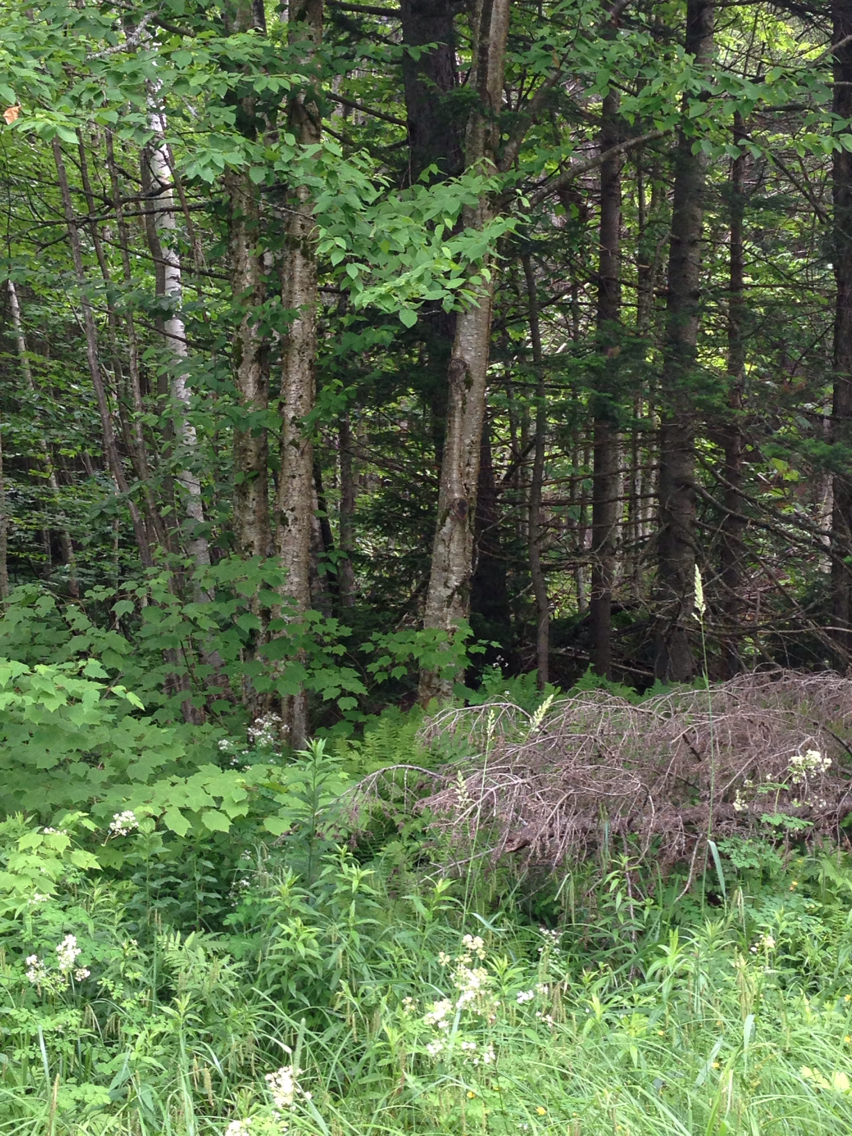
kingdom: Plantae
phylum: Tracheophyta
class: Magnoliopsida
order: Fagales
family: Betulaceae
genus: Betula
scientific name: Betula alleghaniensis
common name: Yellow birch
